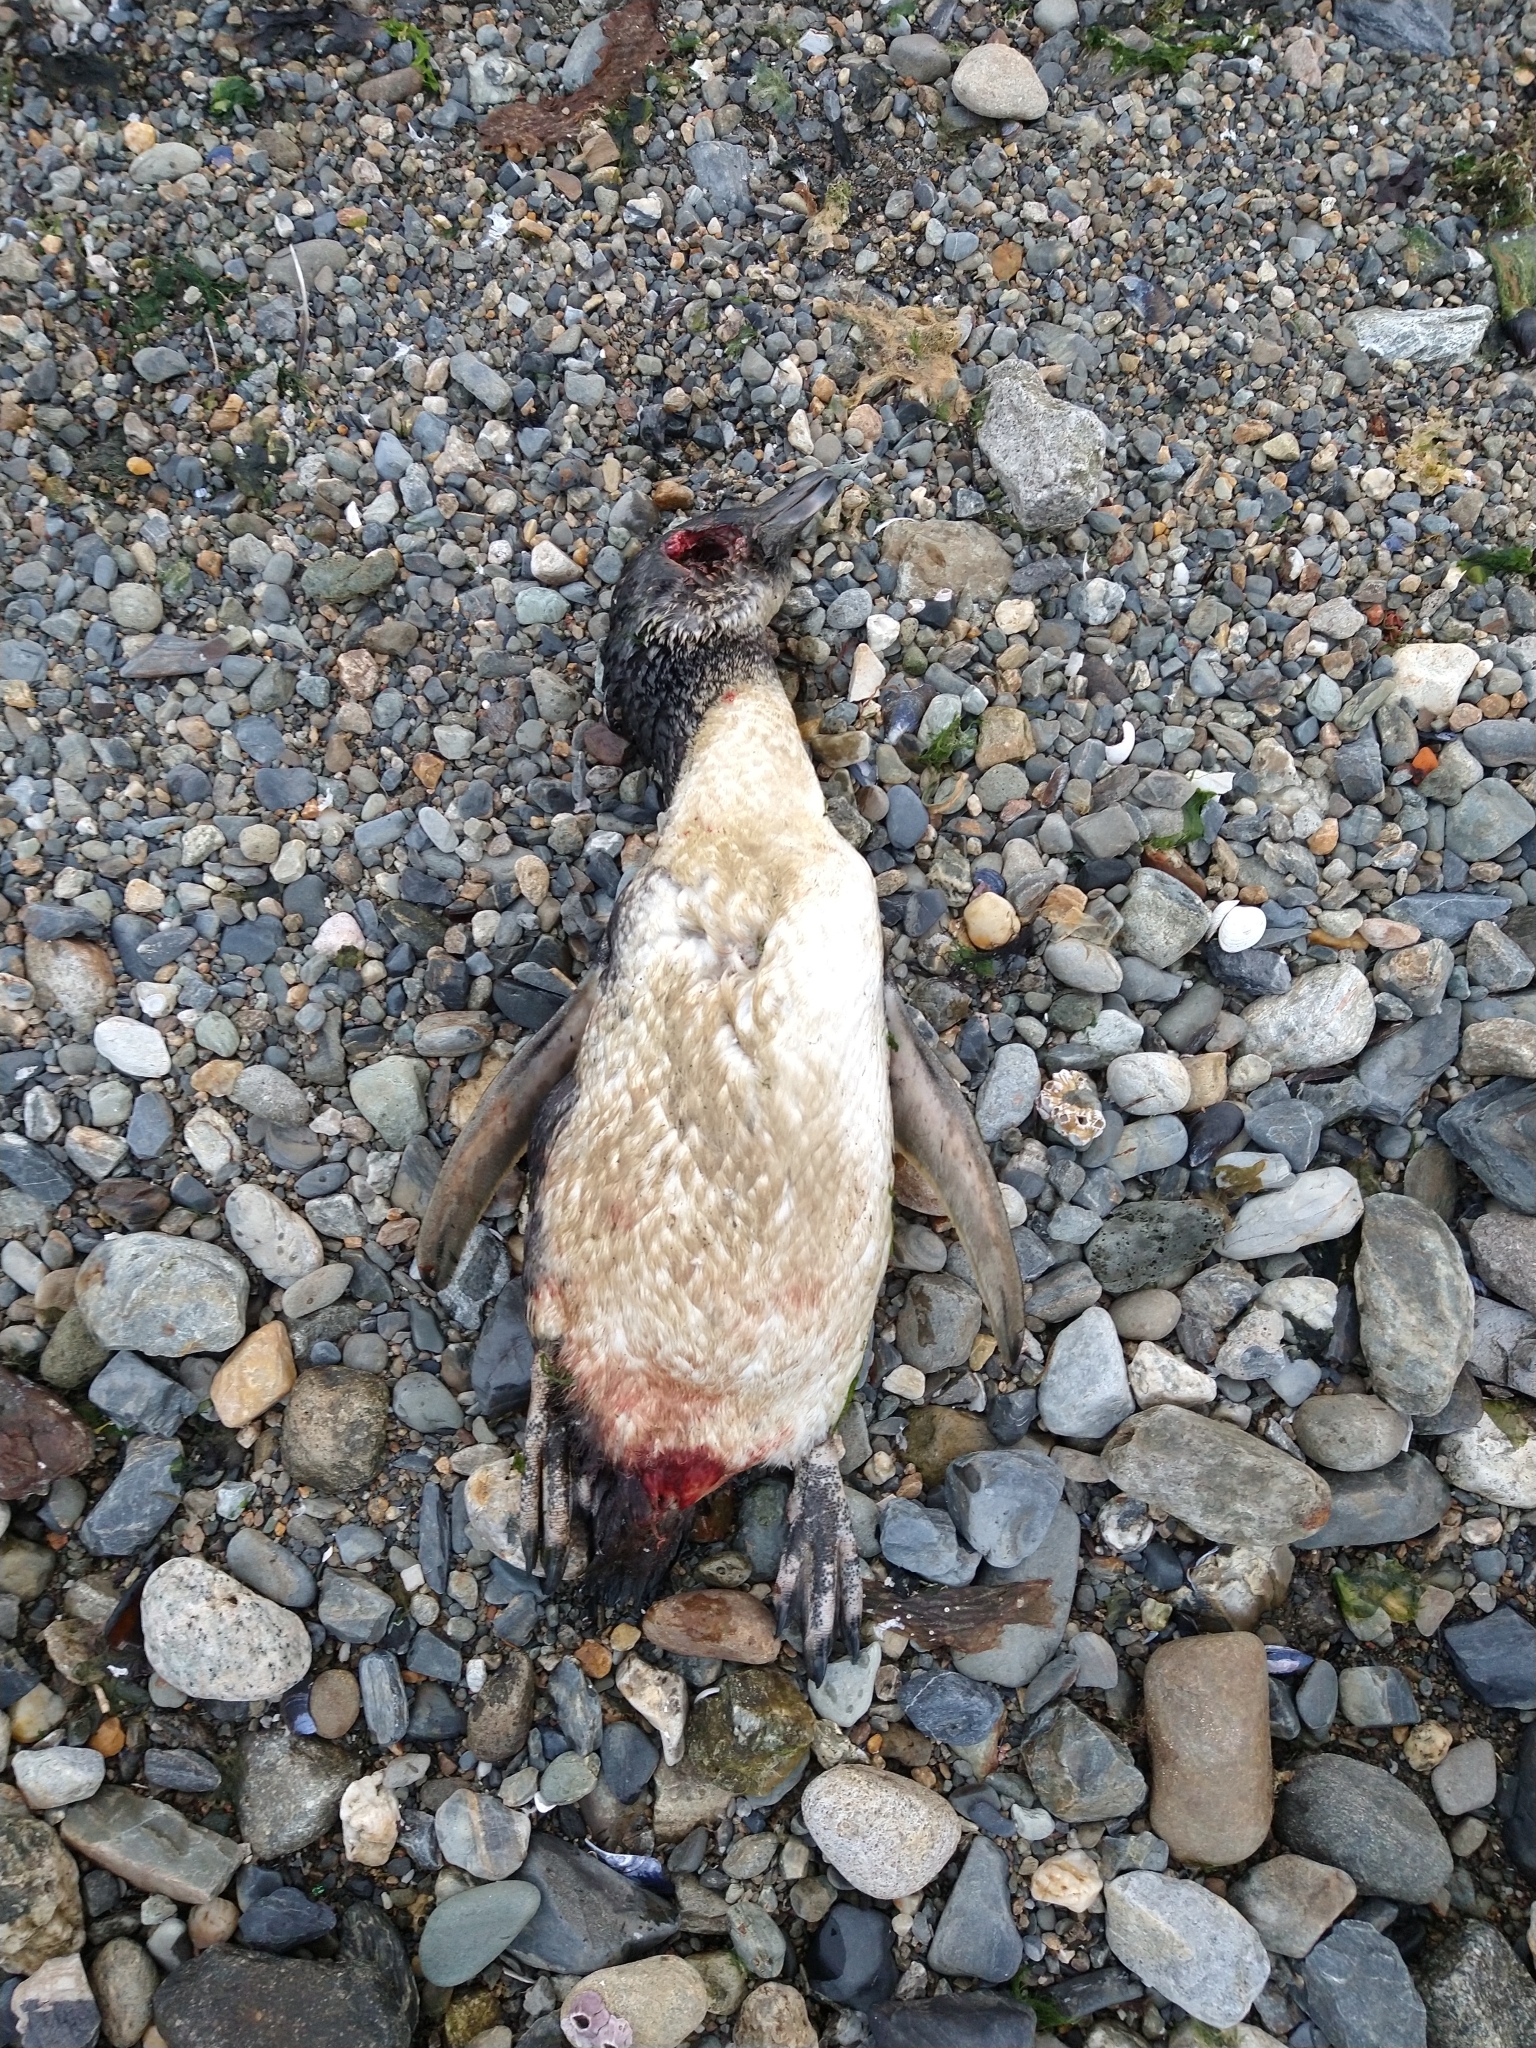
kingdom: Animalia
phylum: Chordata
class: Aves
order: Sphenisciformes
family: Spheniscidae
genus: Spheniscus
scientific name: Spheniscus magellanicus
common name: Magellanic penguin
